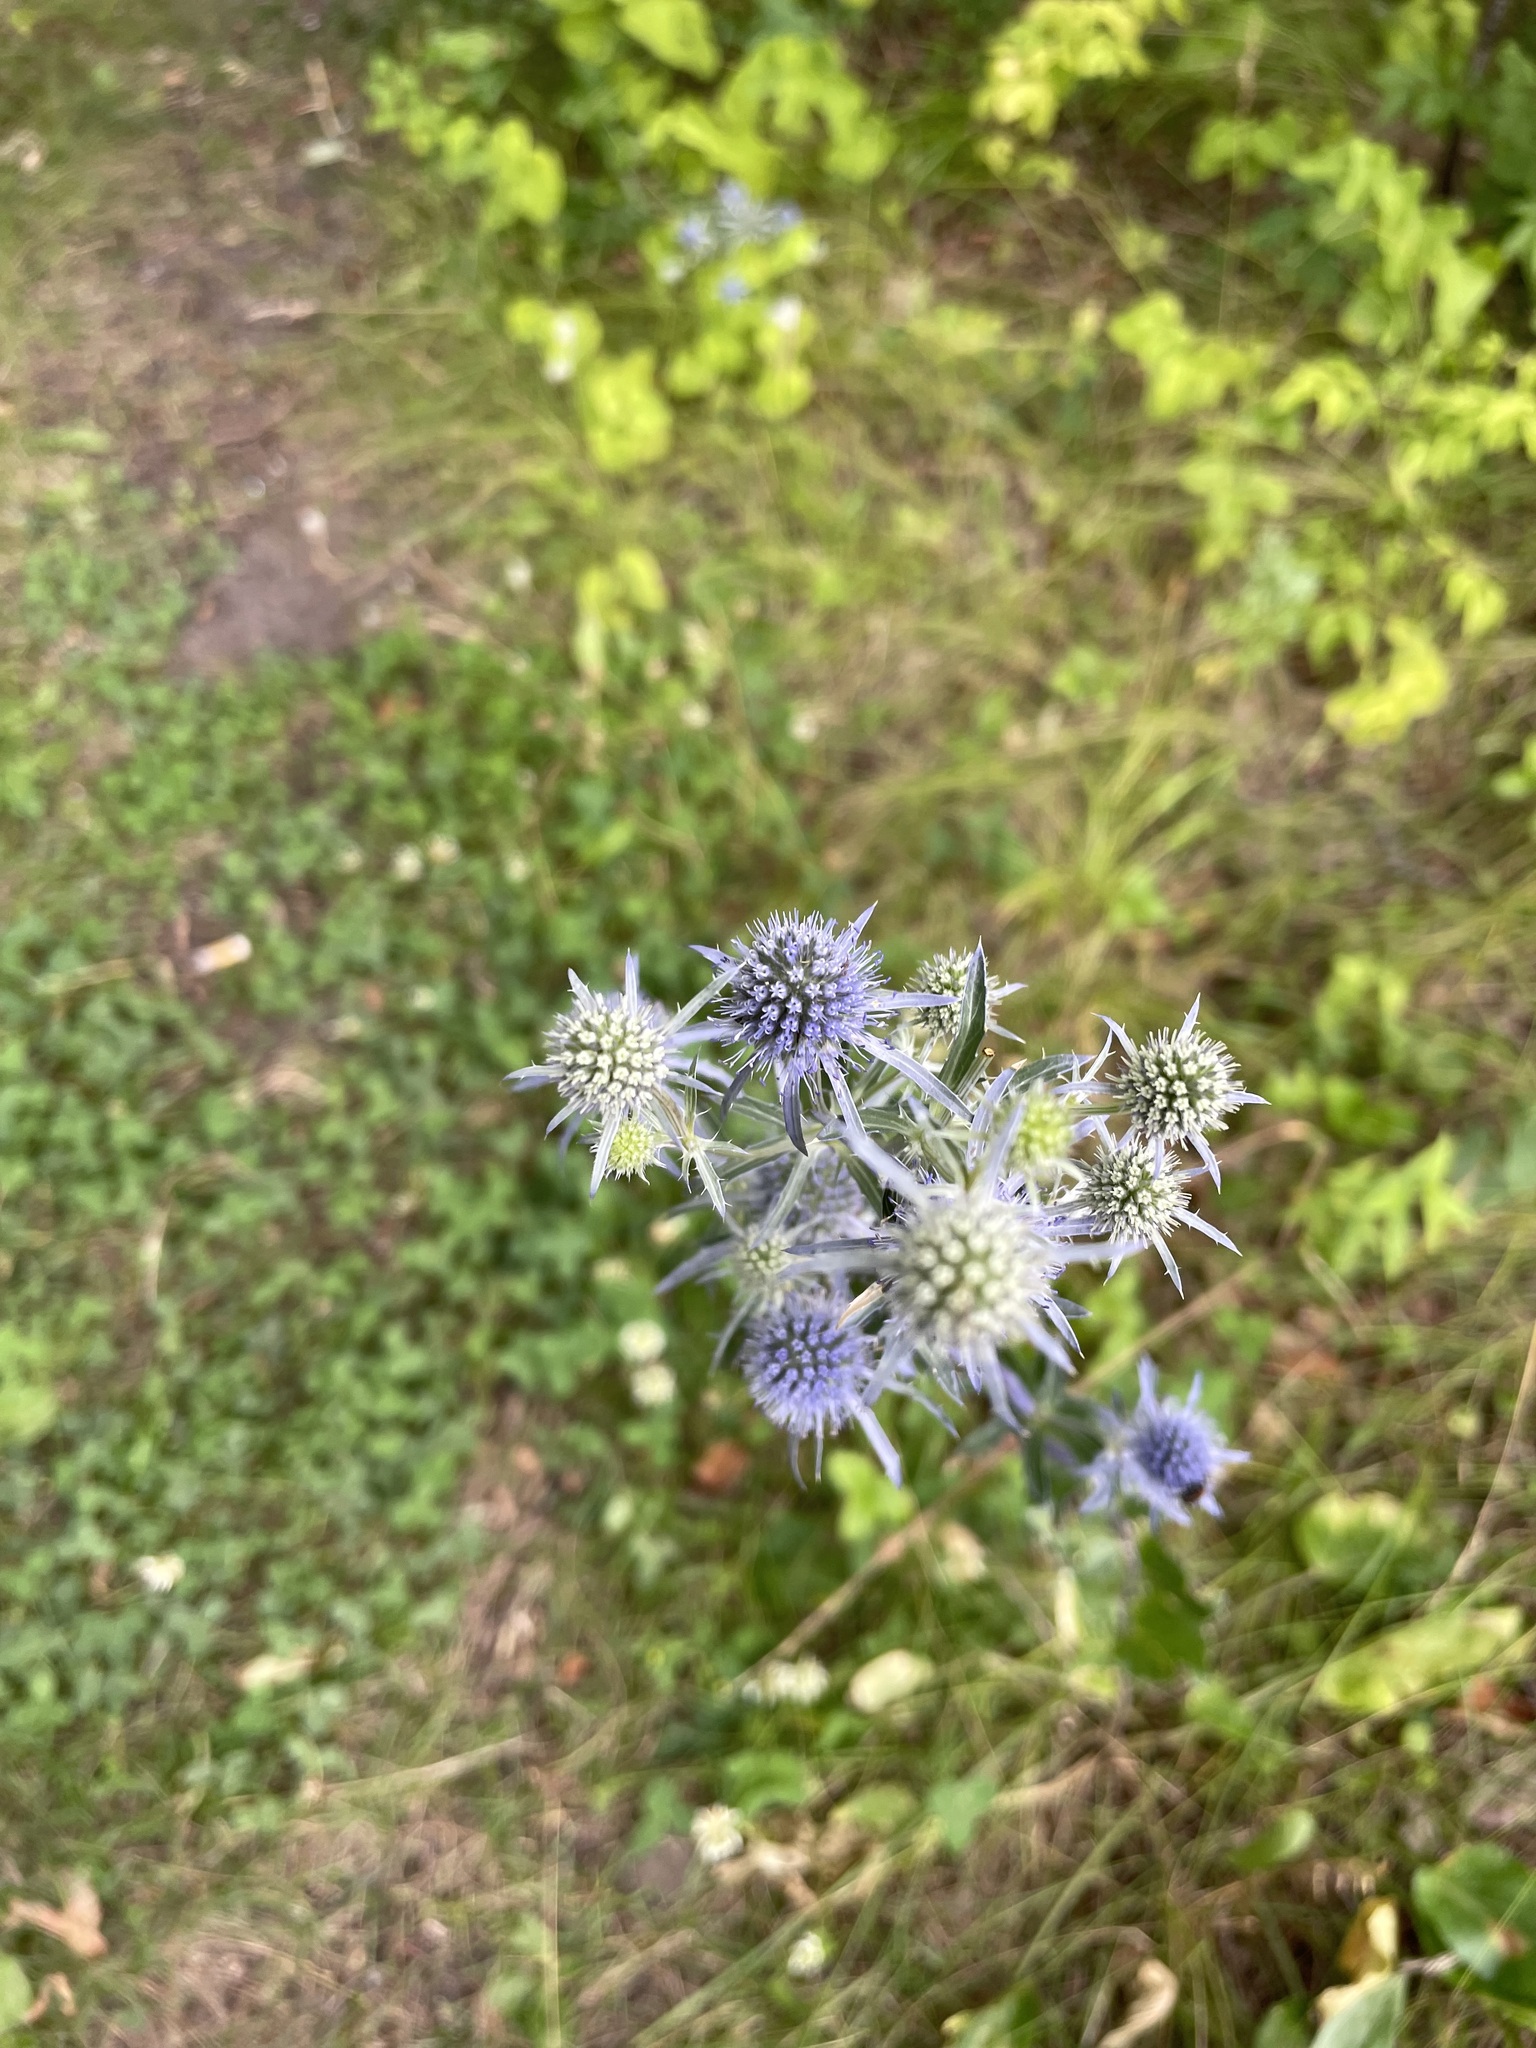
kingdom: Plantae
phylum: Tracheophyta
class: Magnoliopsida
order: Apiales
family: Apiaceae
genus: Eryngium
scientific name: Eryngium planum
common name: Blue eryngo
